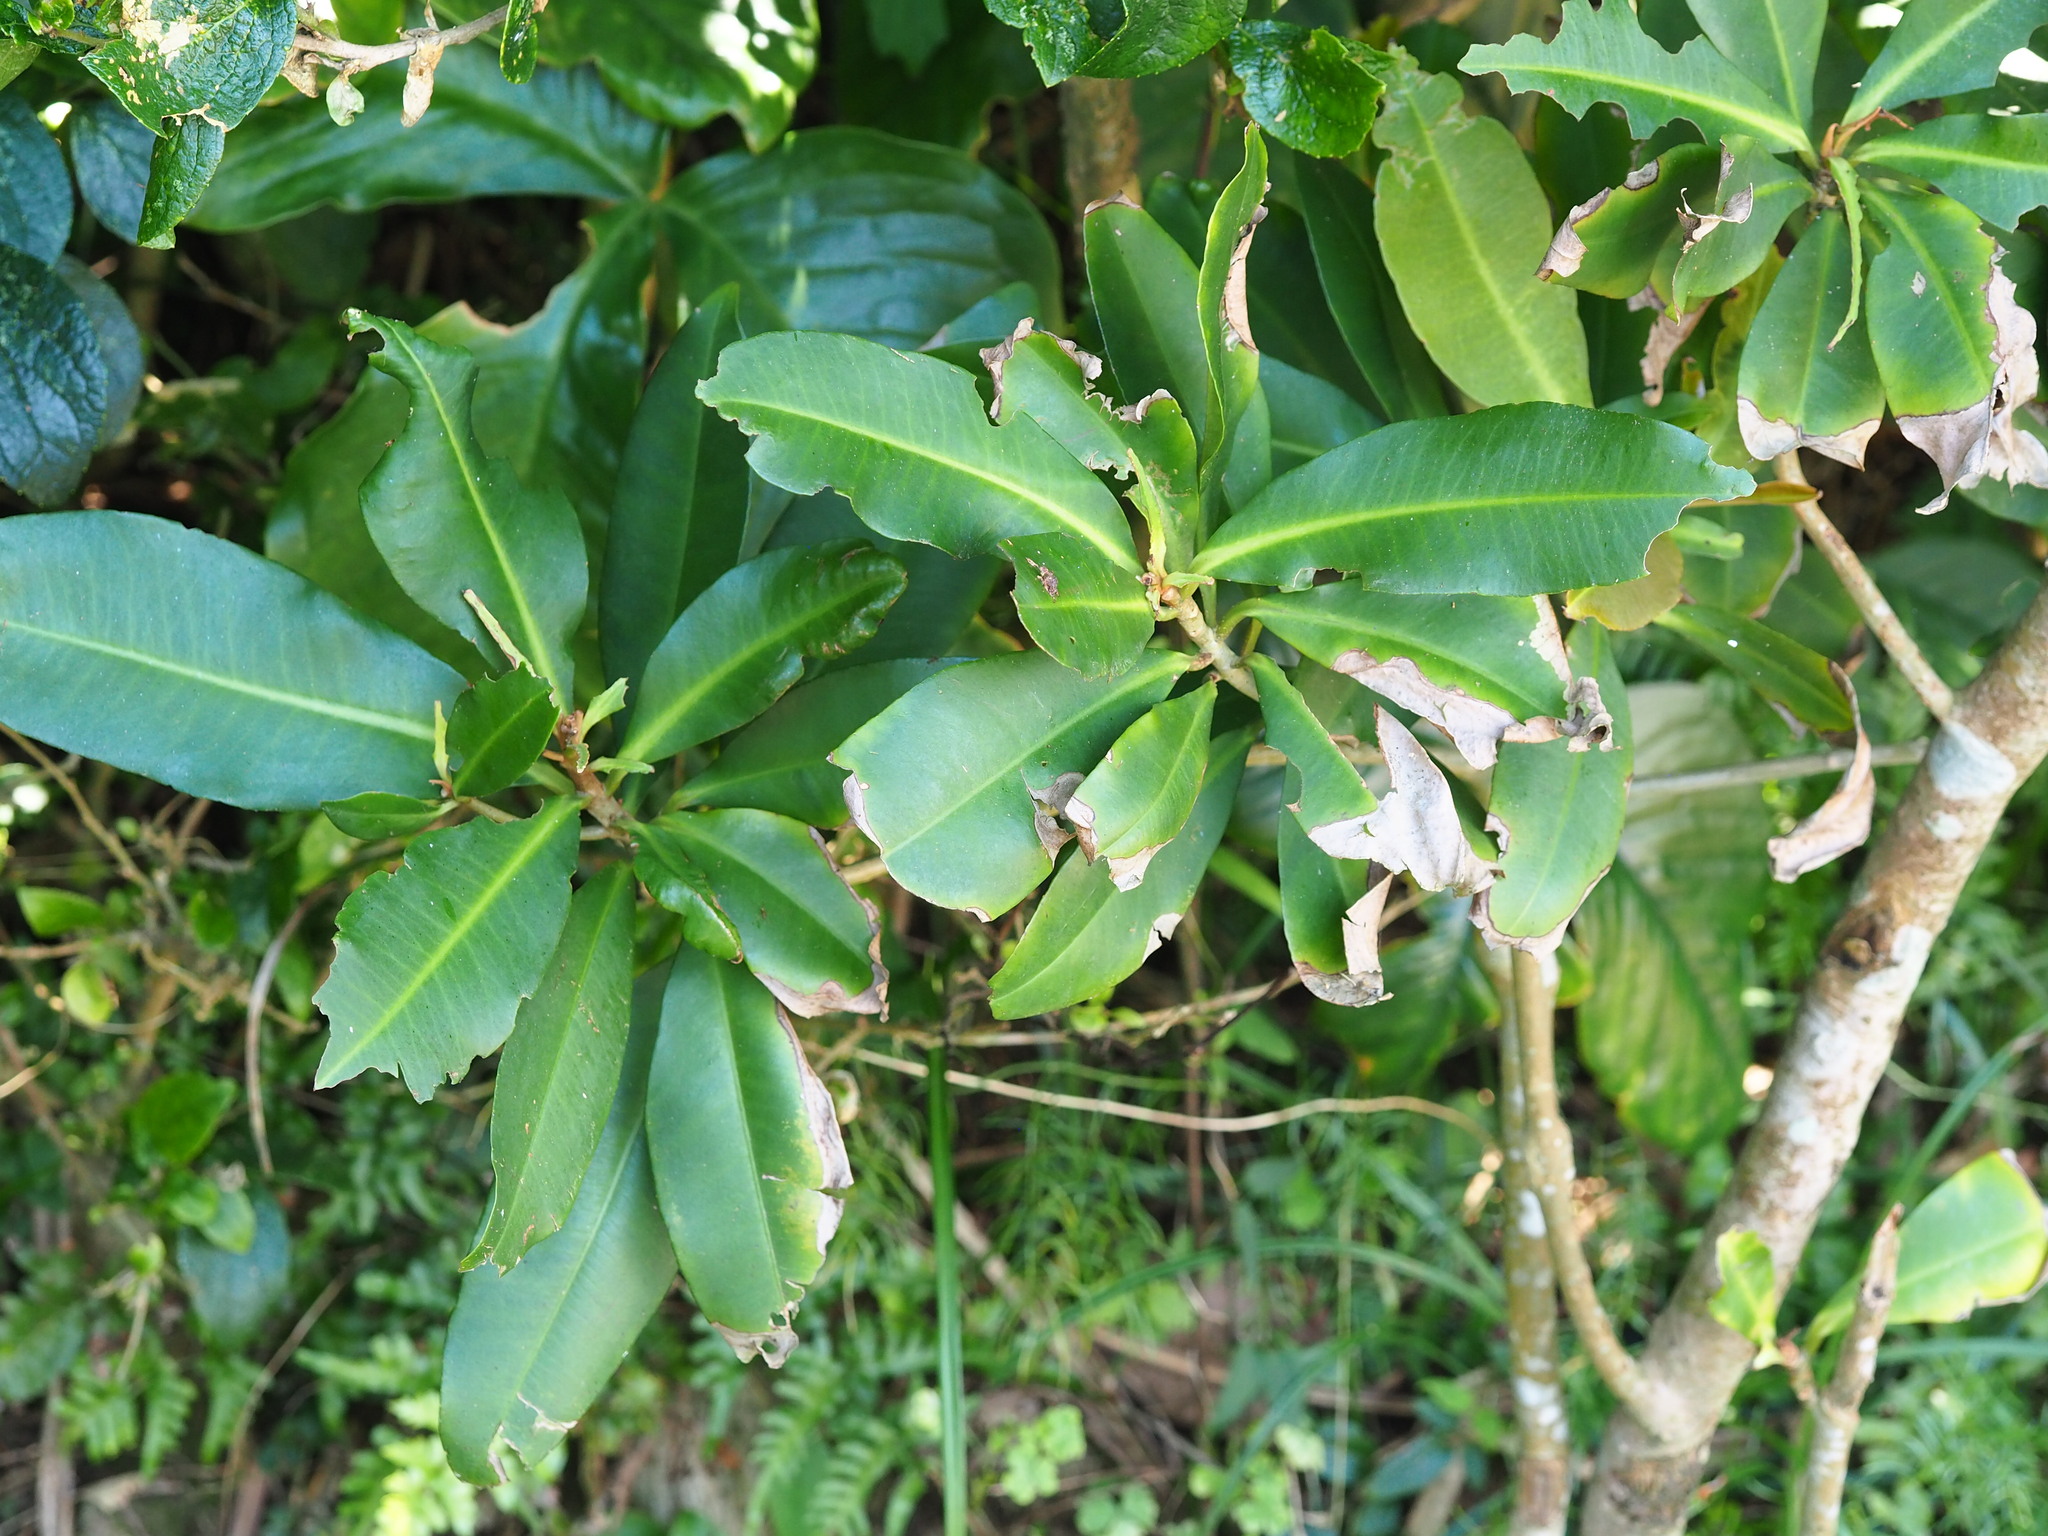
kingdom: Plantae
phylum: Tracheophyta
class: Magnoliopsida
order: Ericales
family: Primulaceae
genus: Ardisia
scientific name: Ardisia sieboldii
